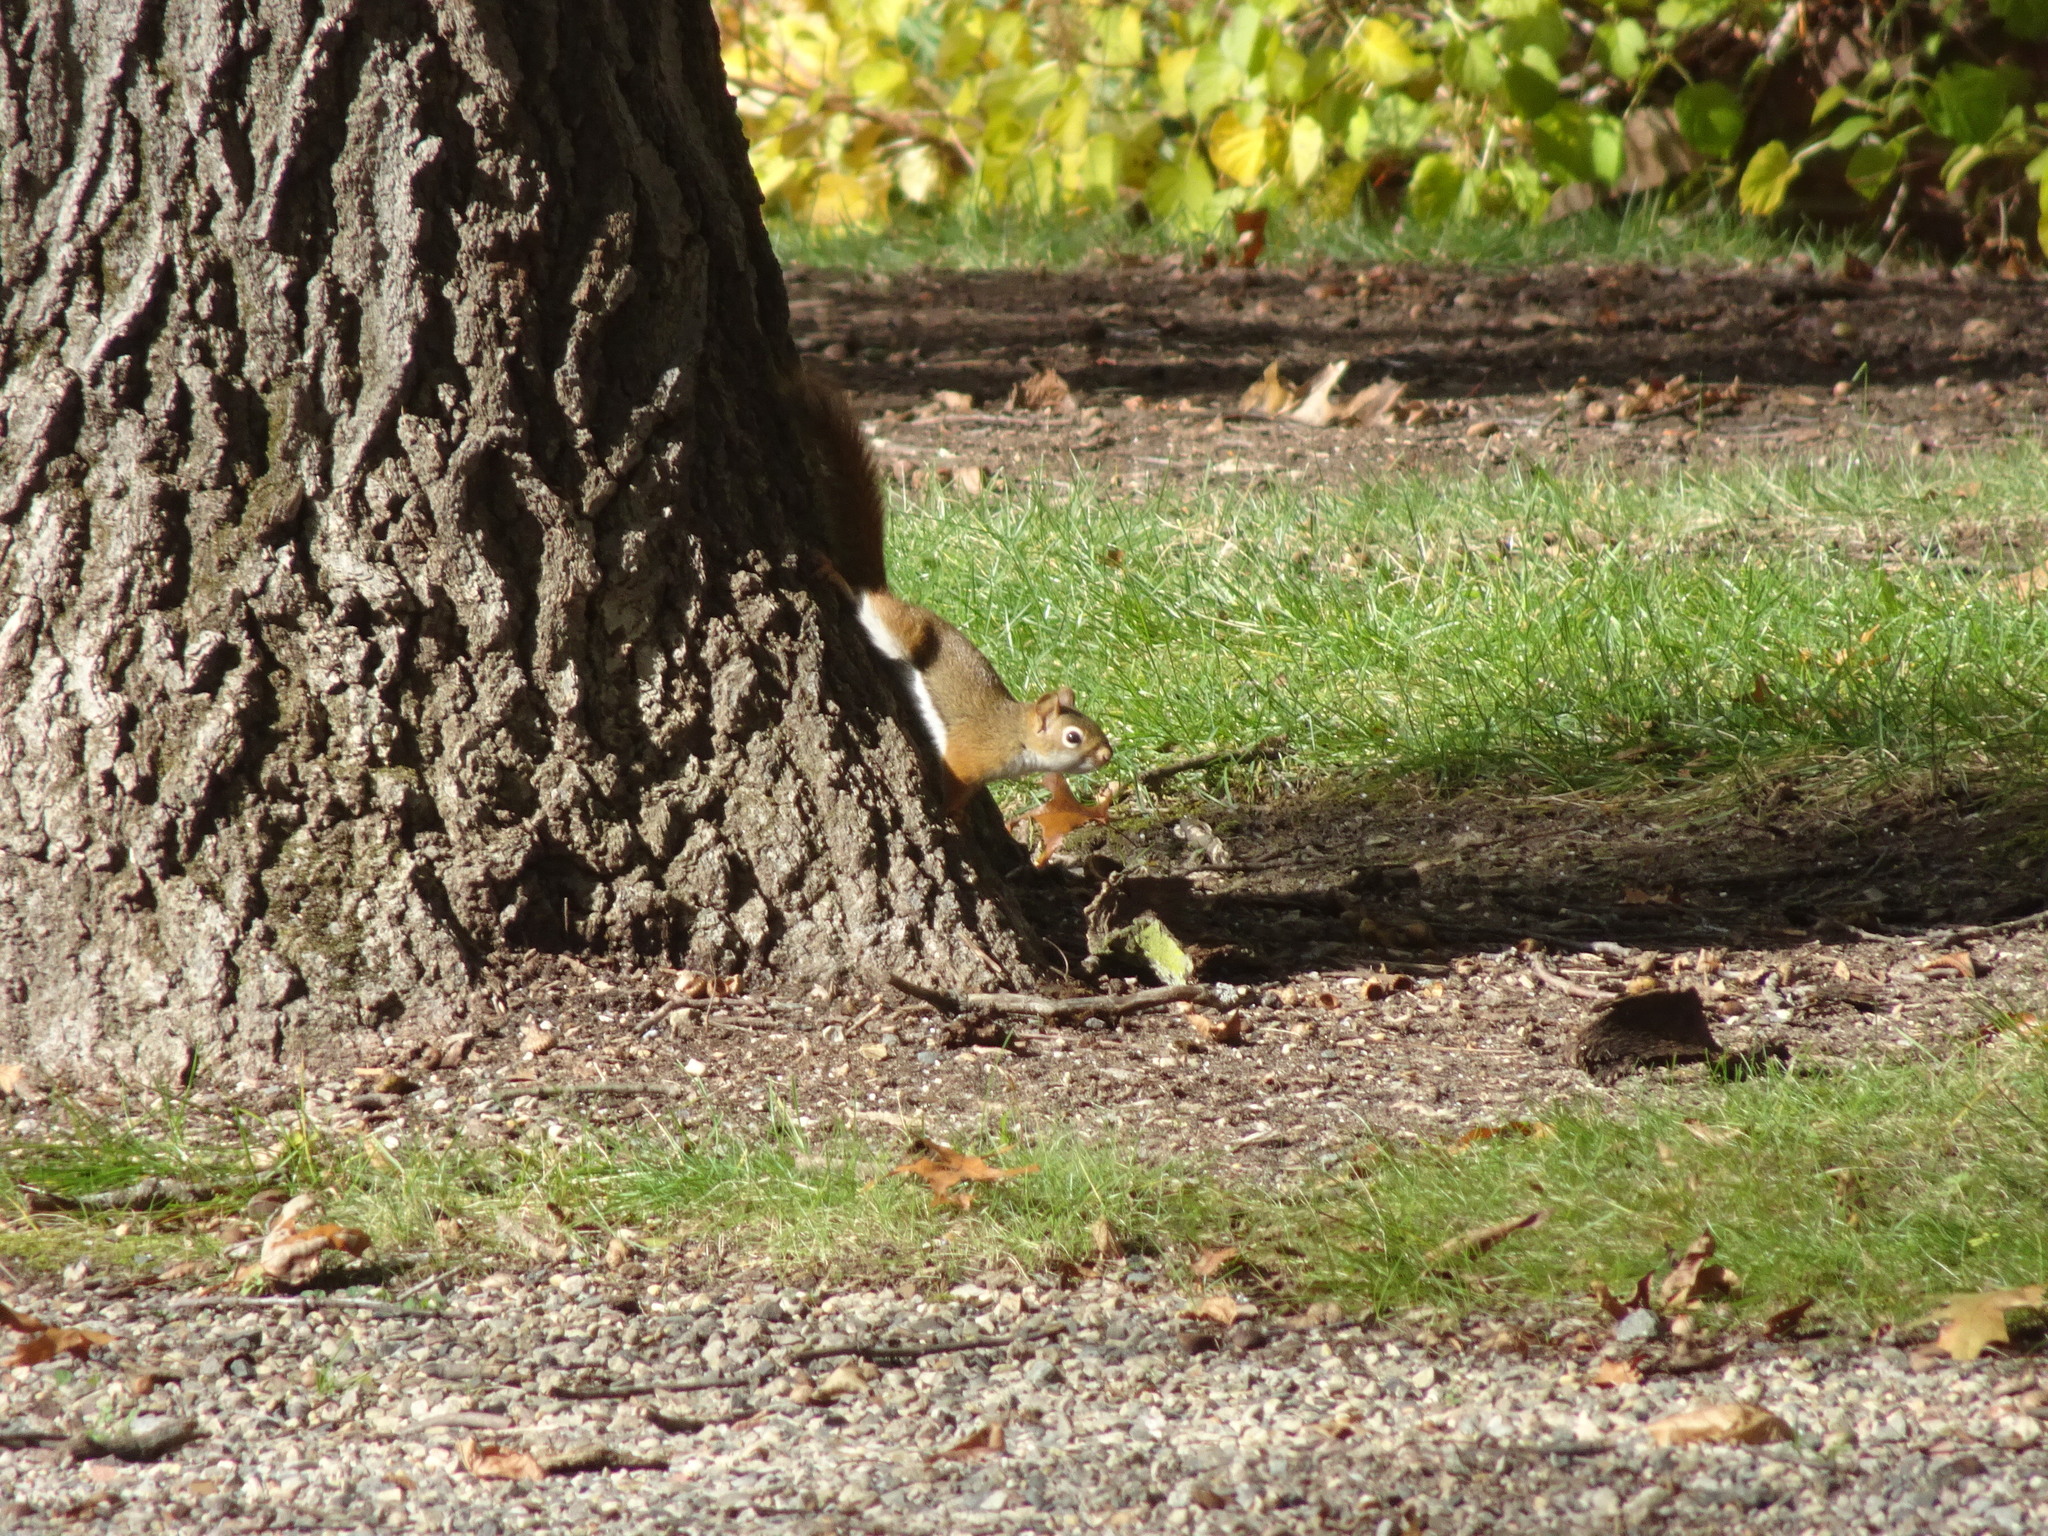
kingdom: Animalia
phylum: Chordata
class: Mammalia
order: Rodentia
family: Sciuridae
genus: Tamiasciurus
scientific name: Tamiasciurus hudsonicus
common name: Red squirrel
